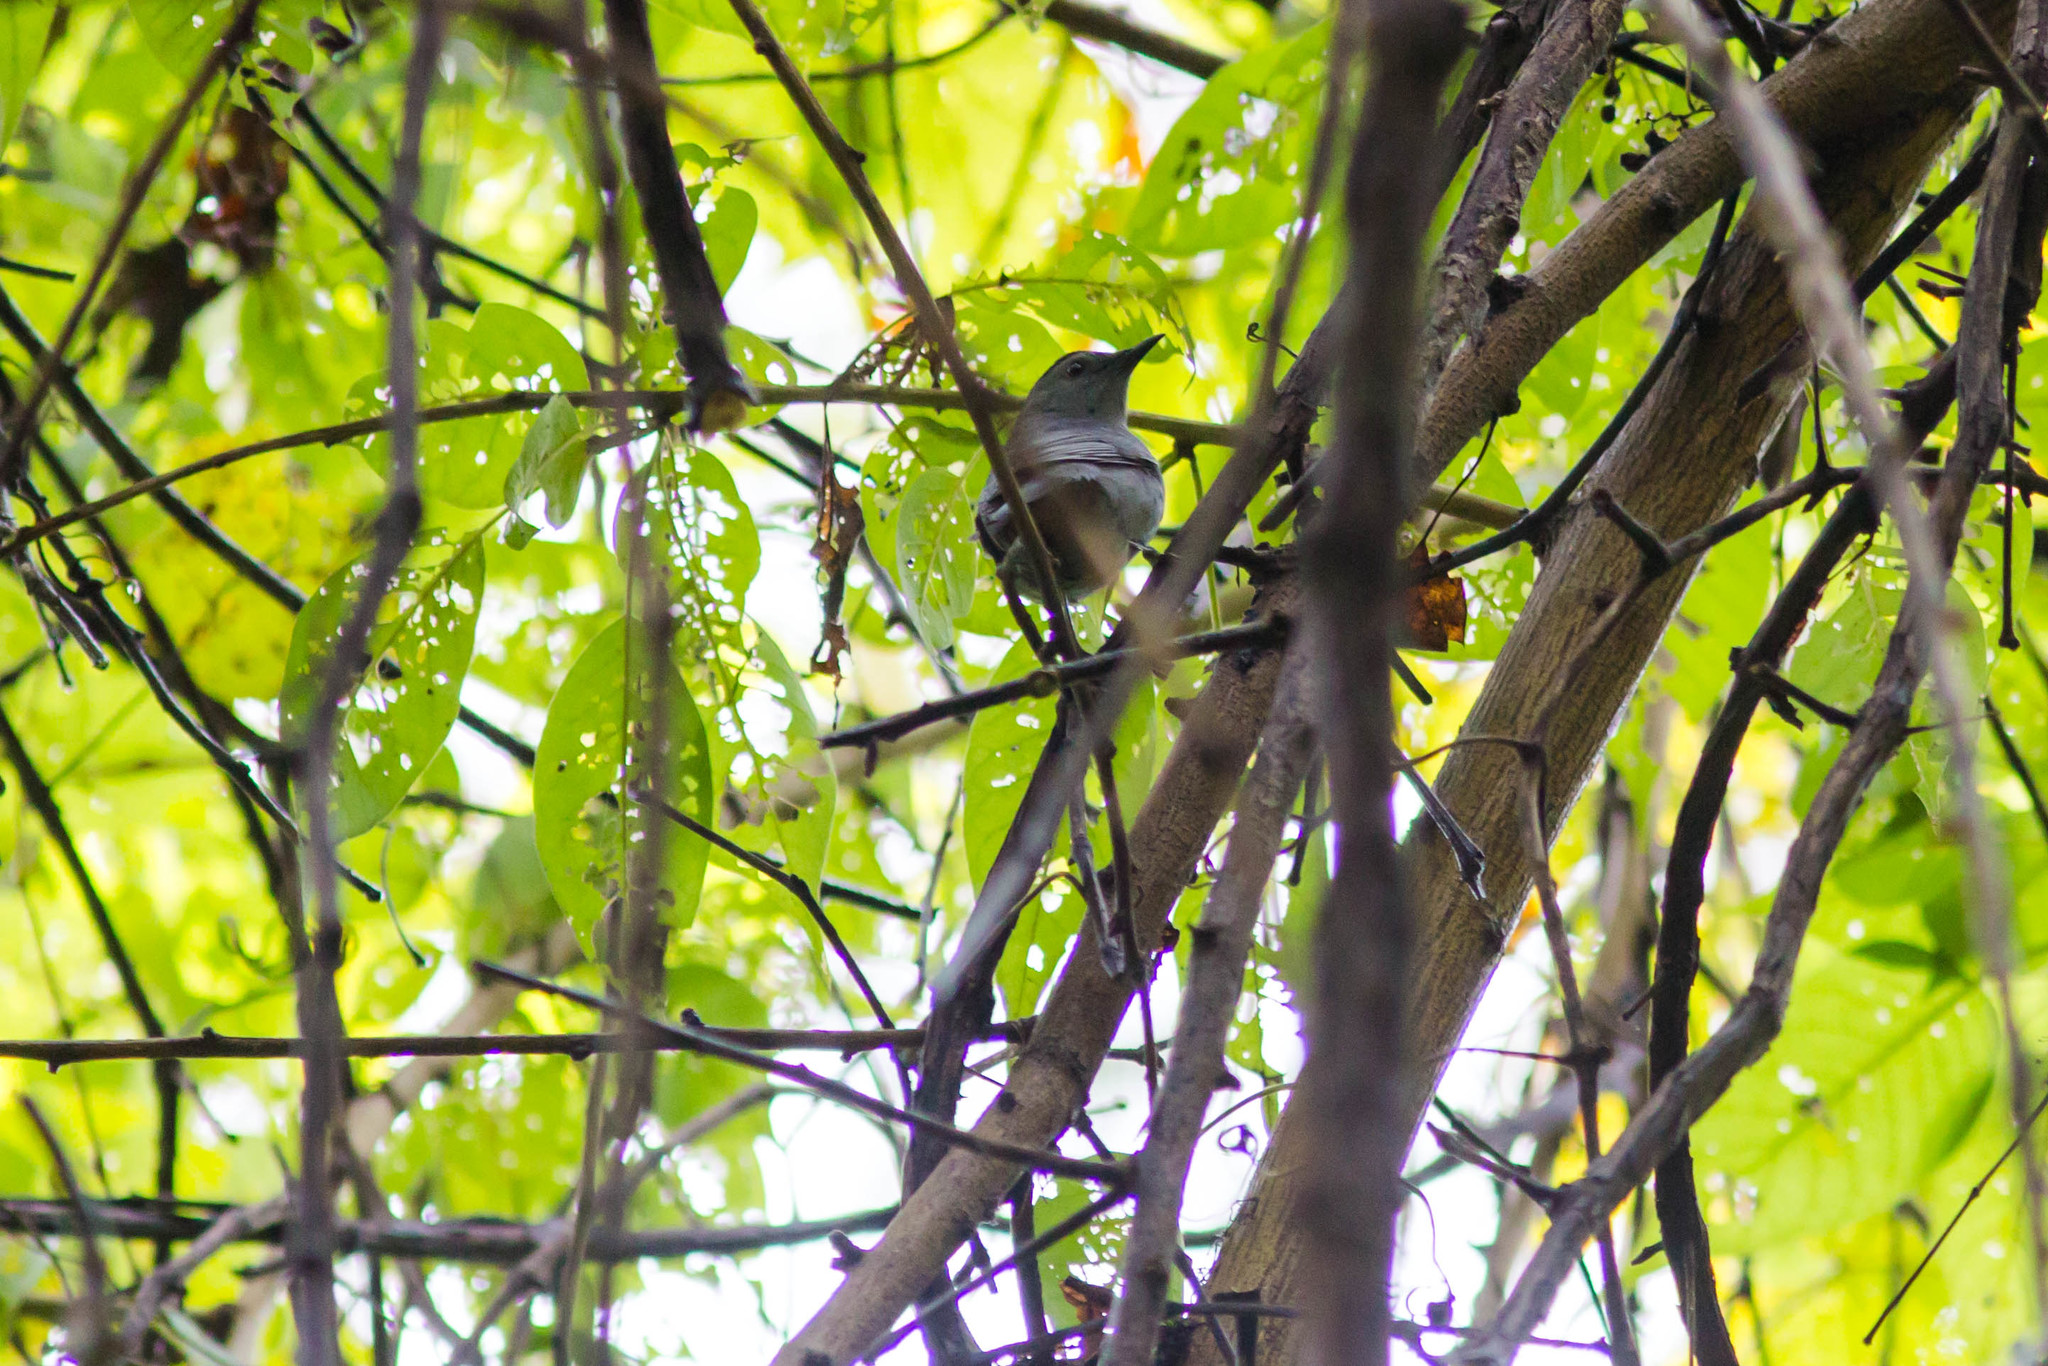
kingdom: Animalia
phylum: Chordata
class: Aves
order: Passeriformes
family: Mimidae
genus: Dumetella
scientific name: Dumetella carolinensis
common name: Gray catbird
